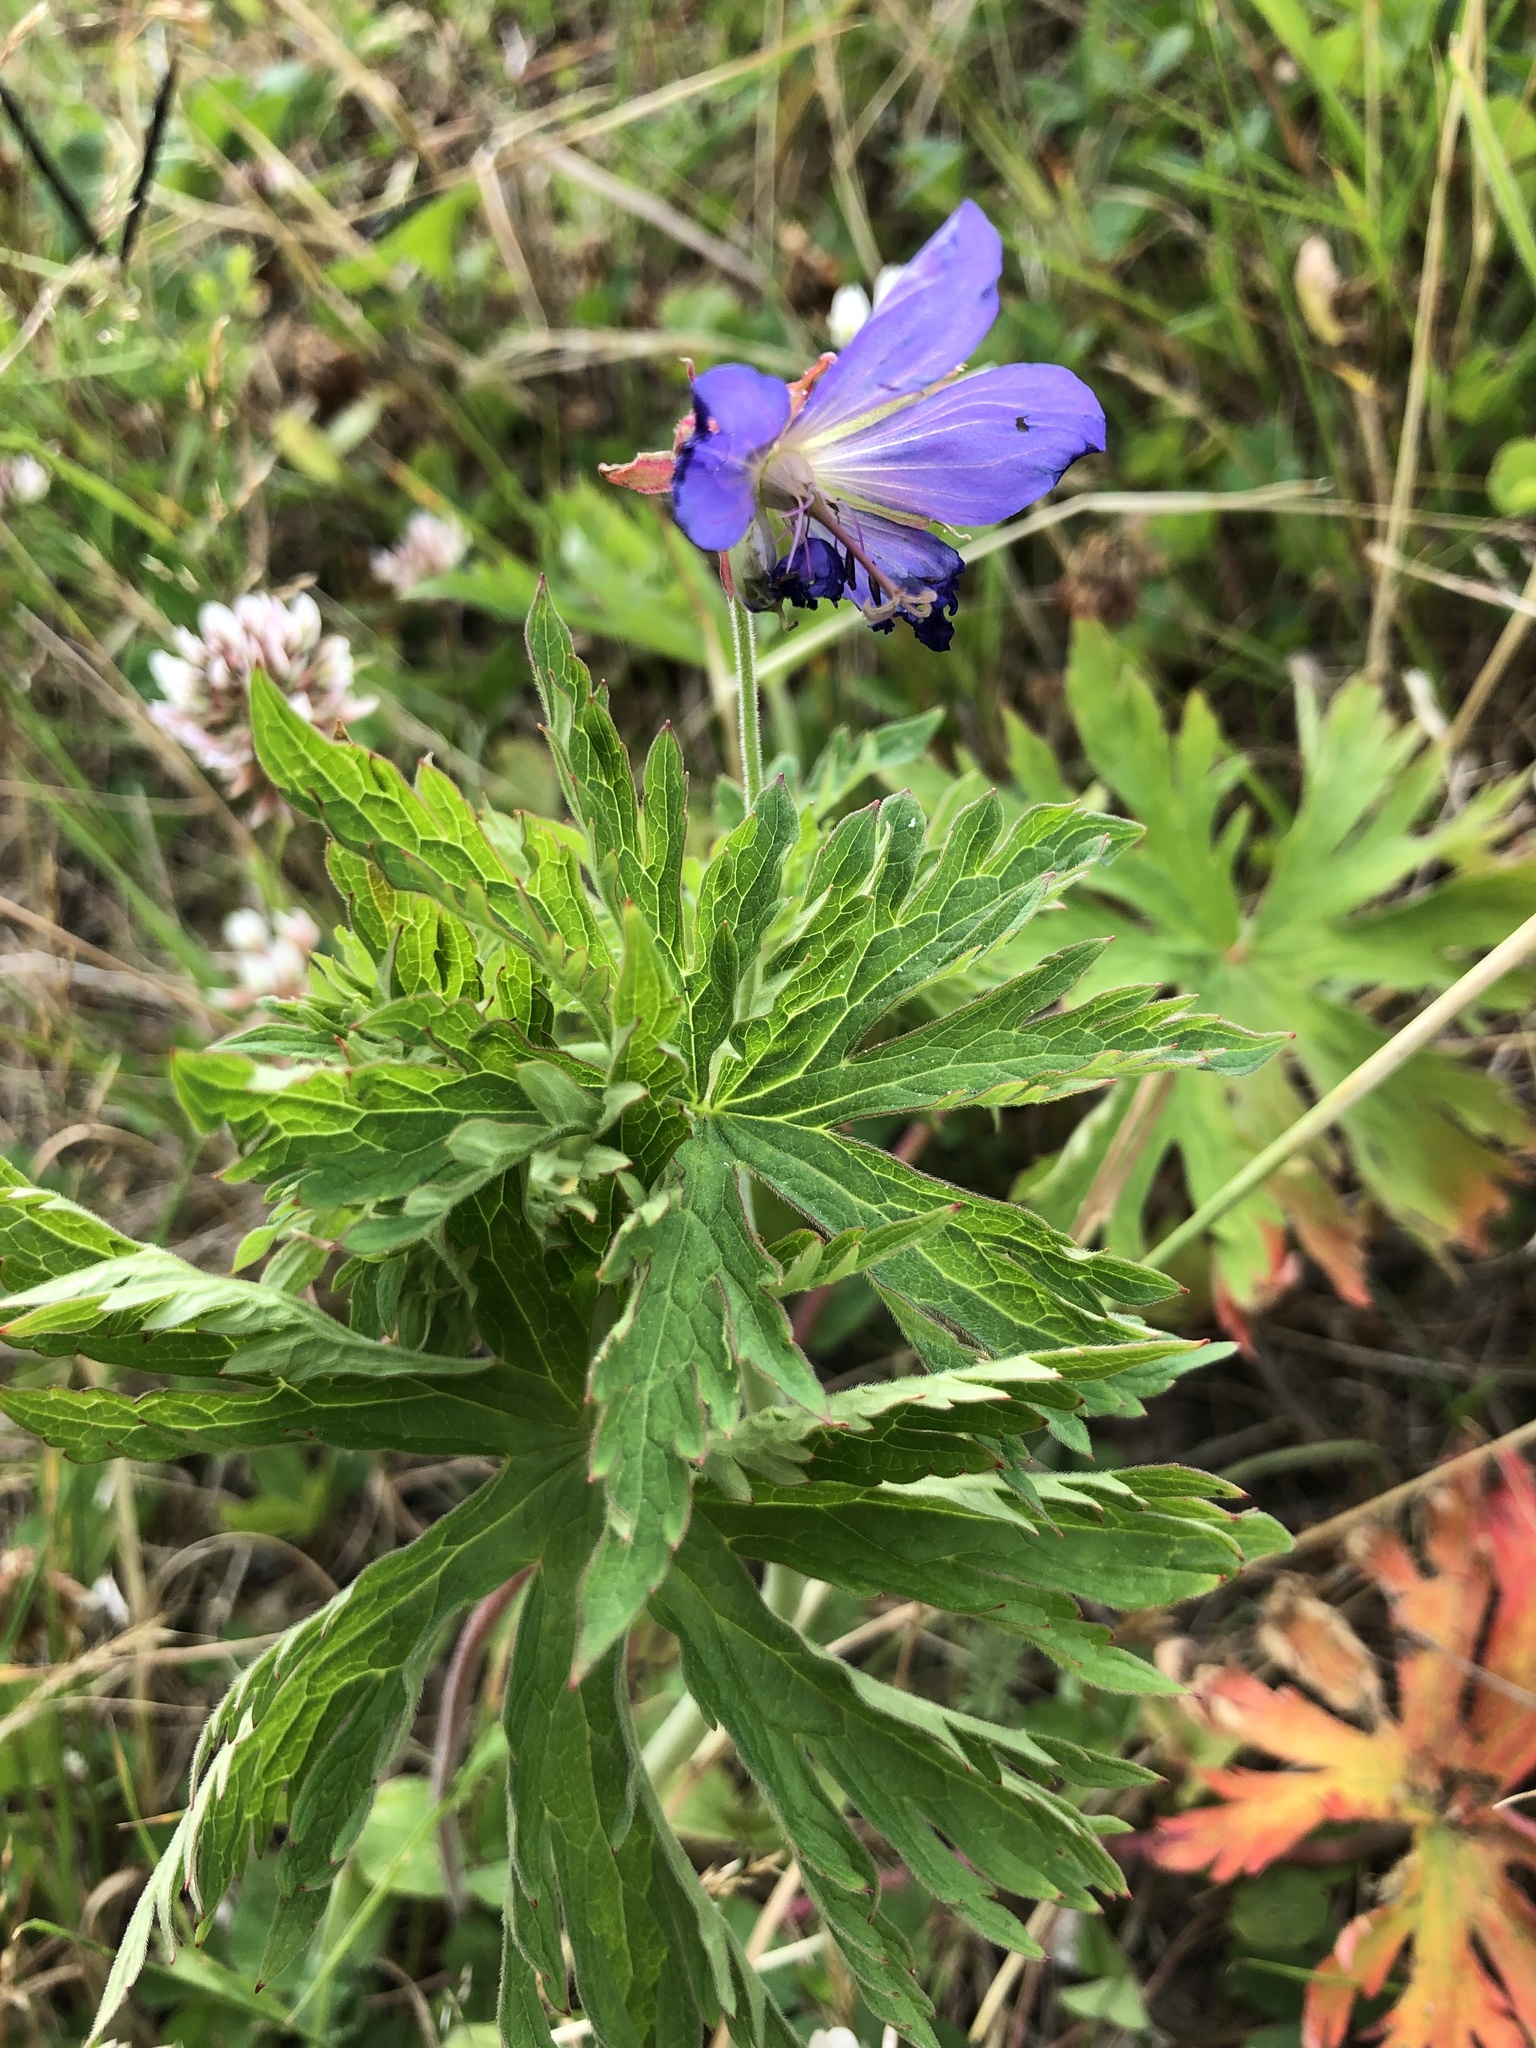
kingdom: Plantae
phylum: Tracheophyta
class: Magnoliopsida
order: Geraniales
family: Geraniaceae
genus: Geranium
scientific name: Geranium pratense
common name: Meadow crane's-bill
